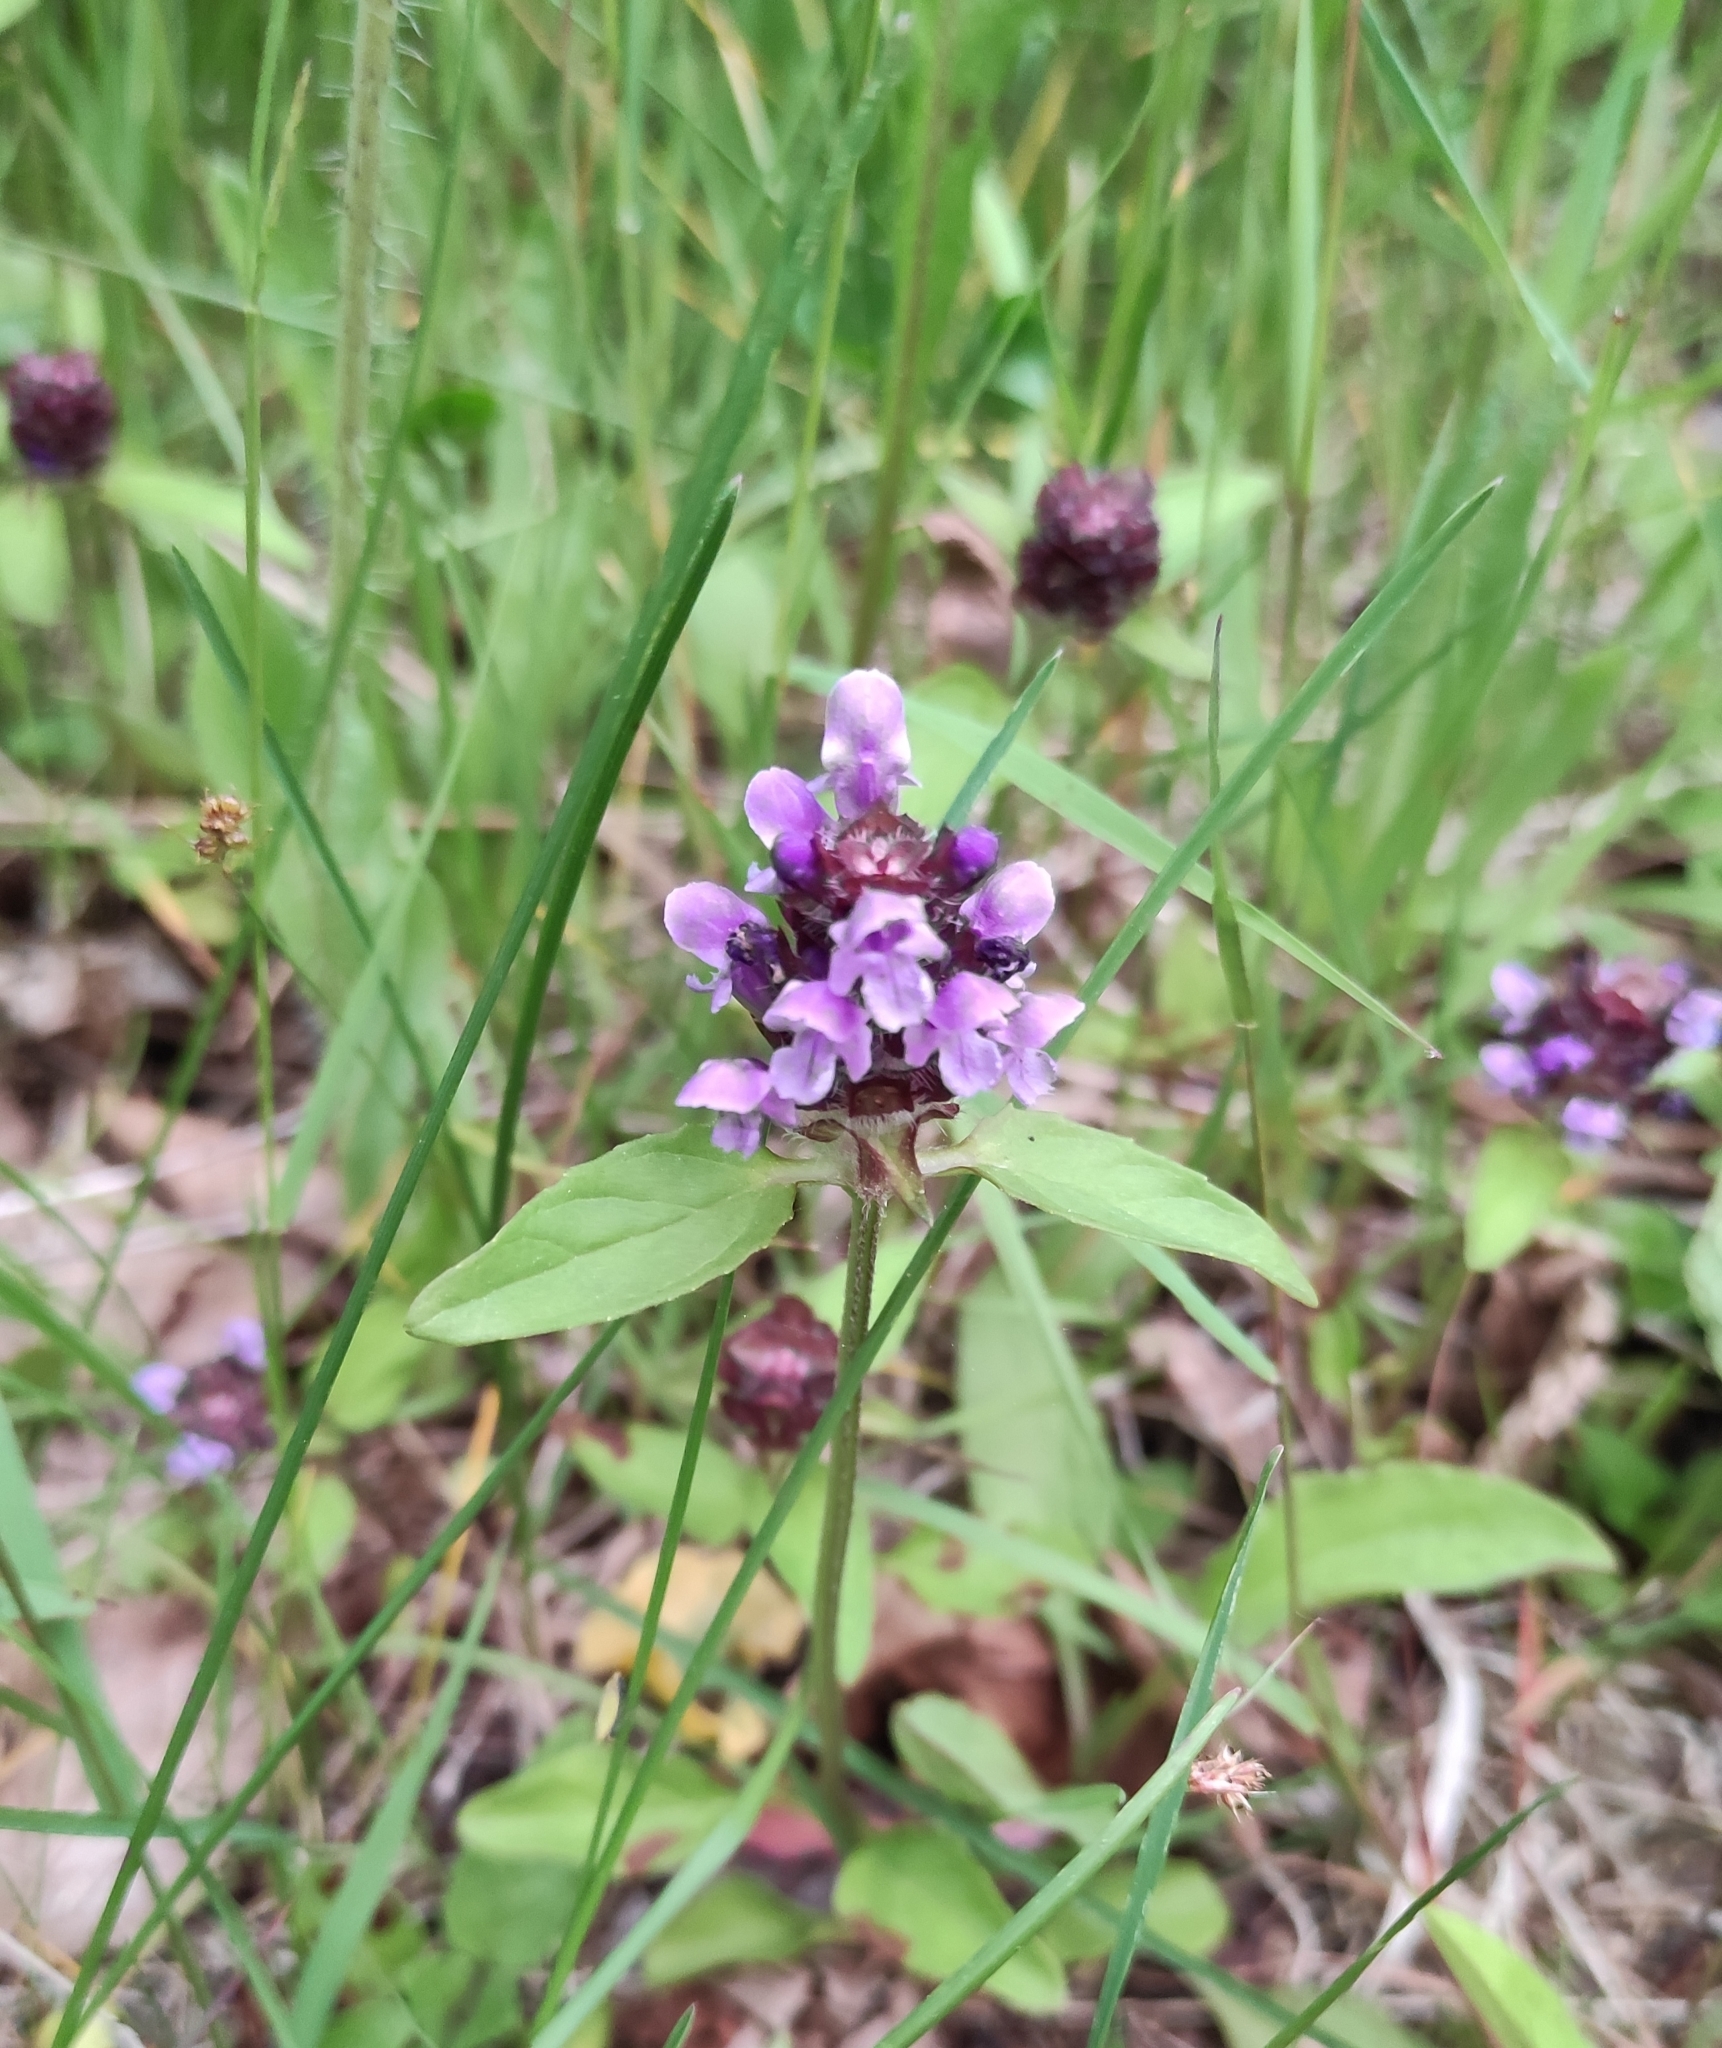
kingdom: Plantae
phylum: Tracheophyta
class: Magnoliopsida
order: Lamiales
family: Lamiaceae
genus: Prunella
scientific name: Prunella vulgaris
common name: Heal-all
